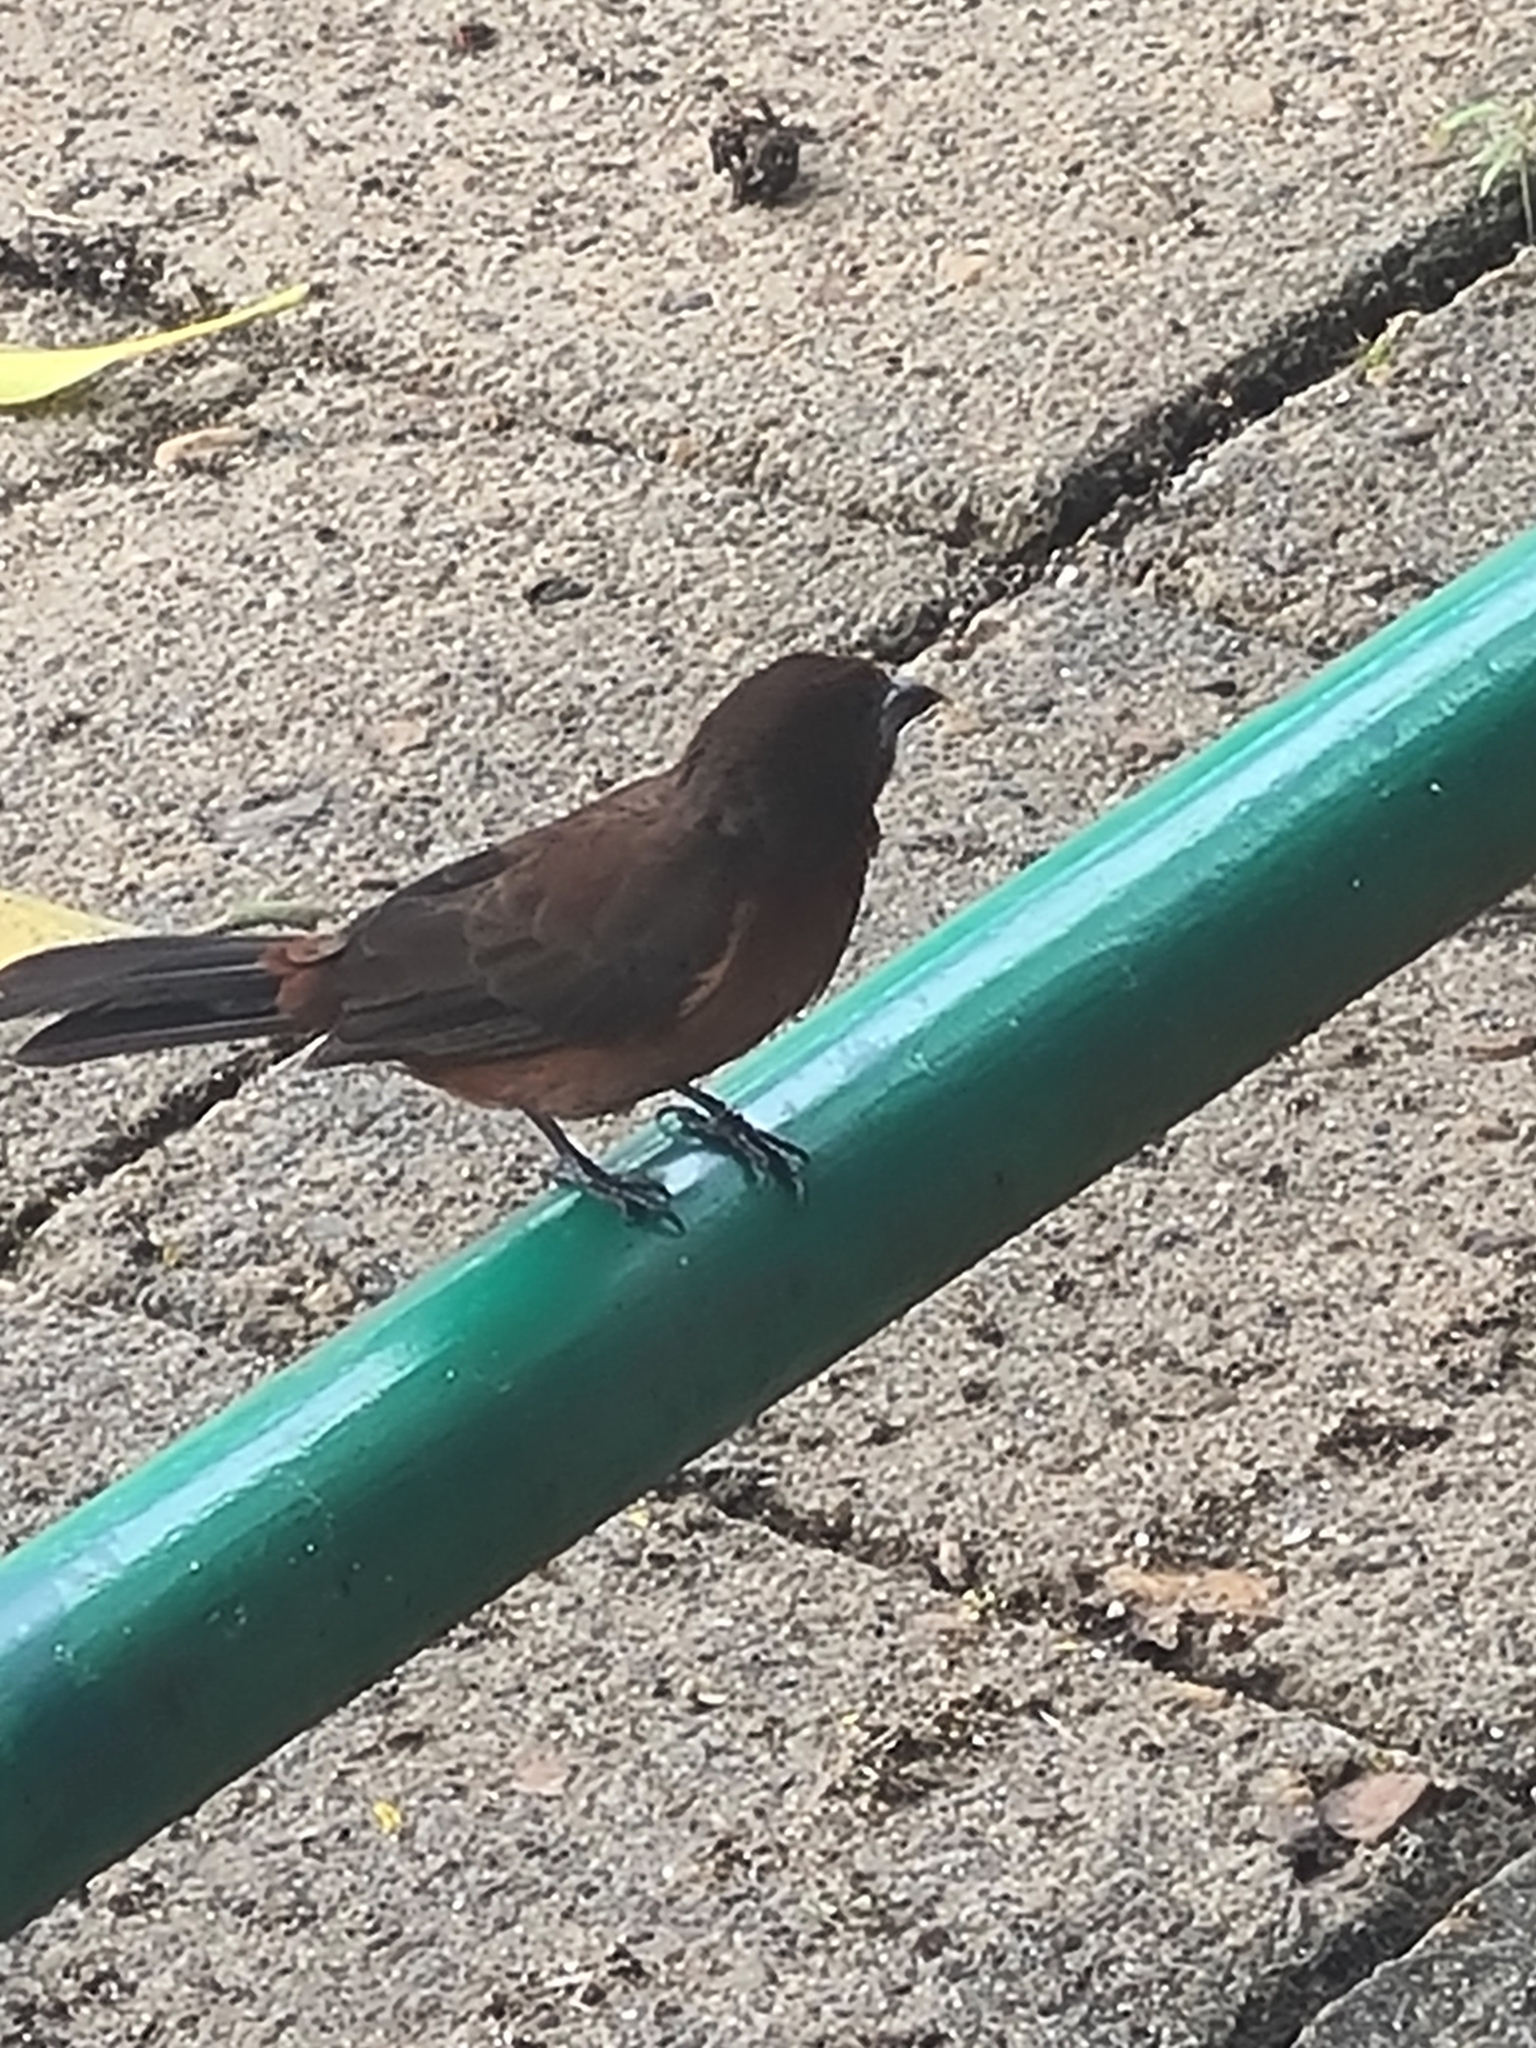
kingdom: Animalia
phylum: Chordata
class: Aves
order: Passeriformes
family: Thraupidae
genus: Ramphocelus
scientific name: Ramphocelus carbo
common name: Silver-beaked tanager
